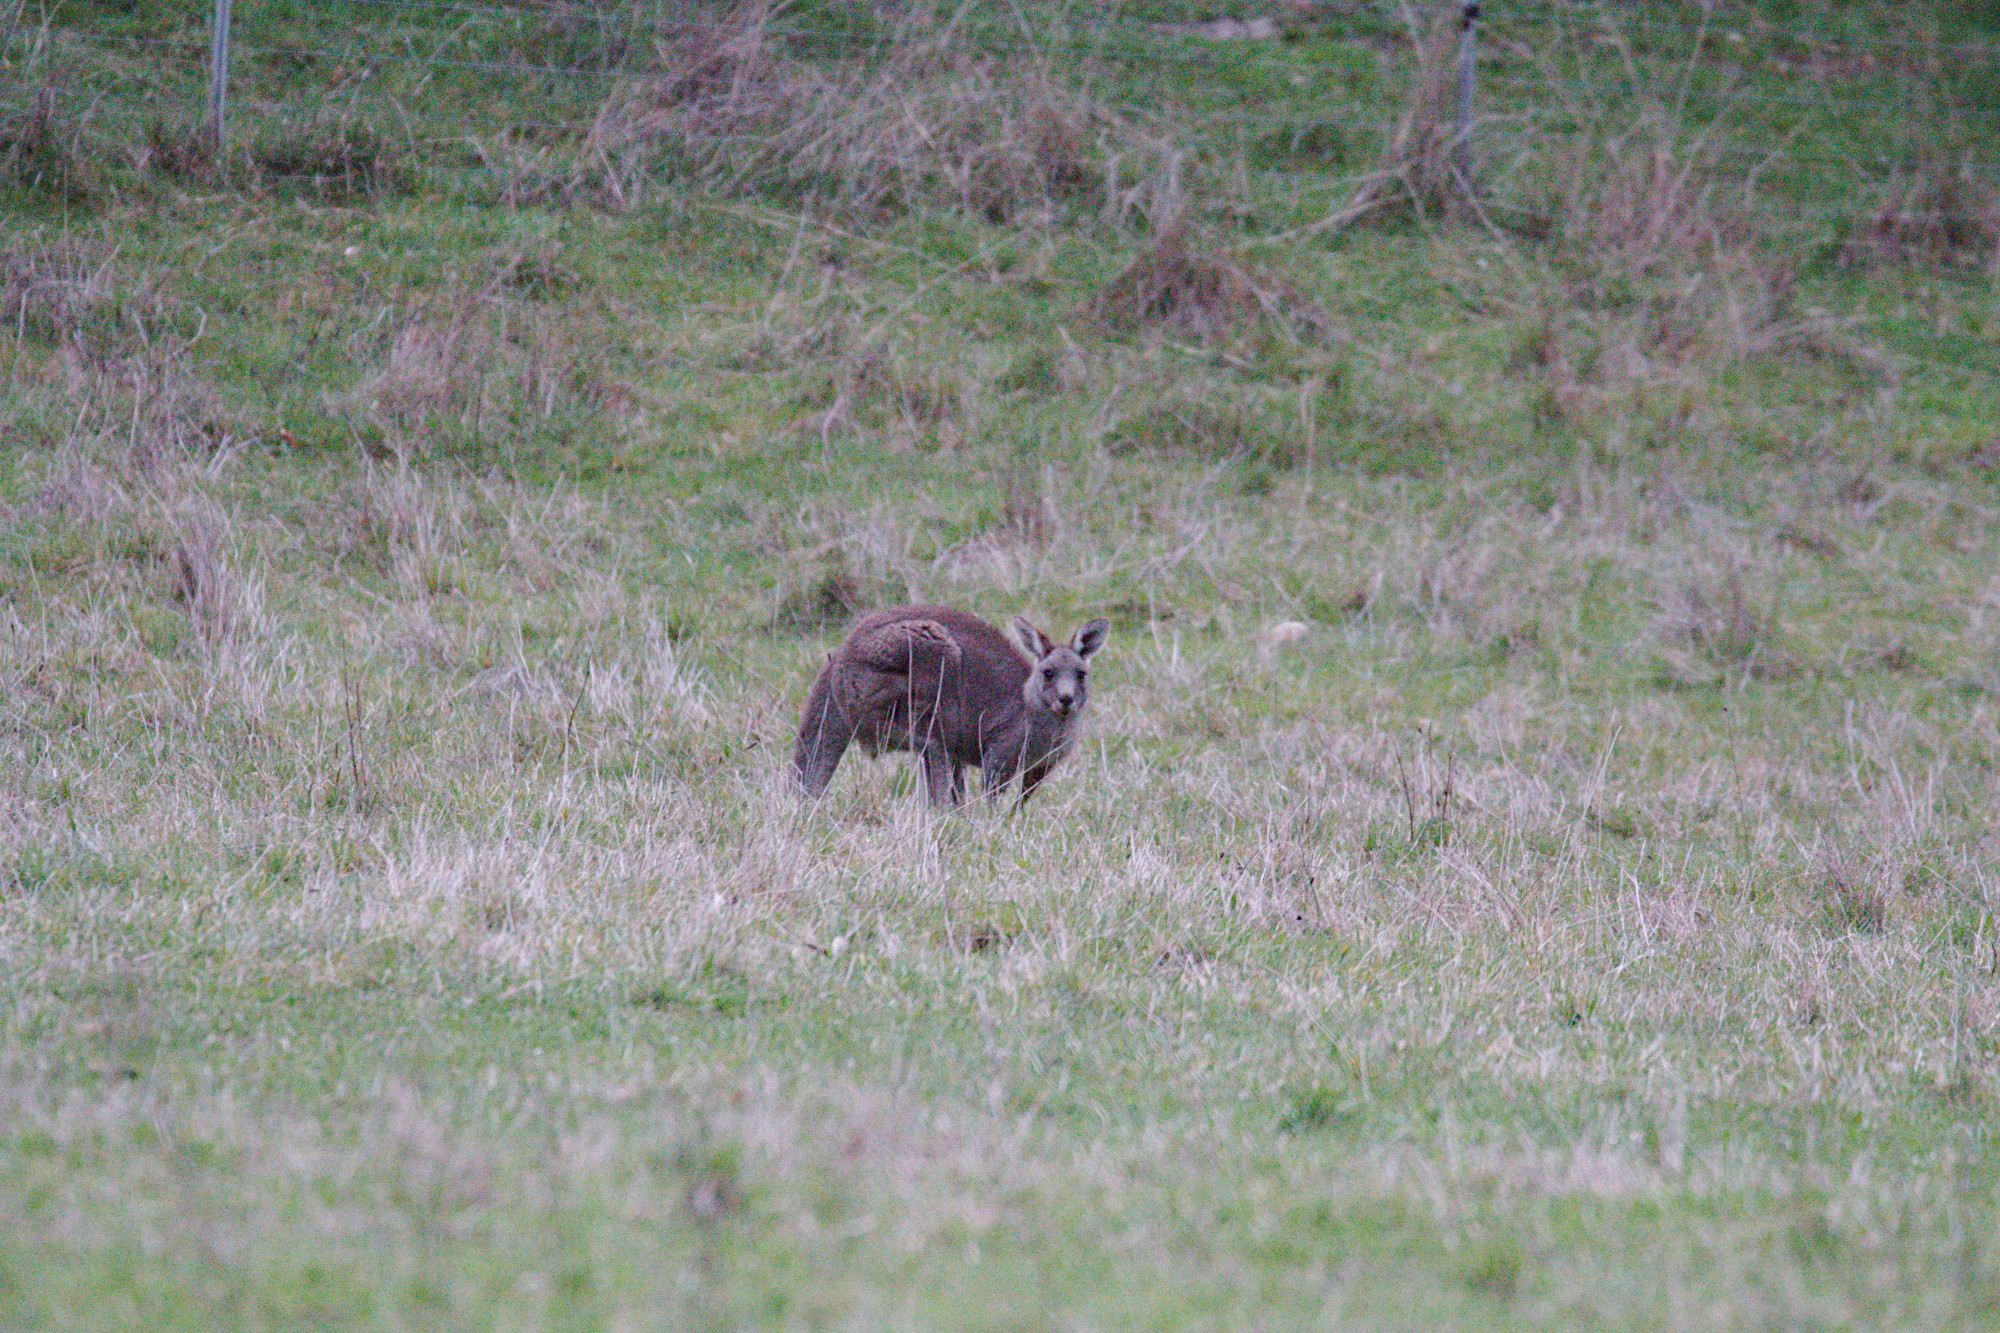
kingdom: Animalia
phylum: Chordata
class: Mammalia
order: Diprotodontia
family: Macropodidae
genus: Macropus
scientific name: Macropus giganteus
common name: Eastern grey kangaroo
